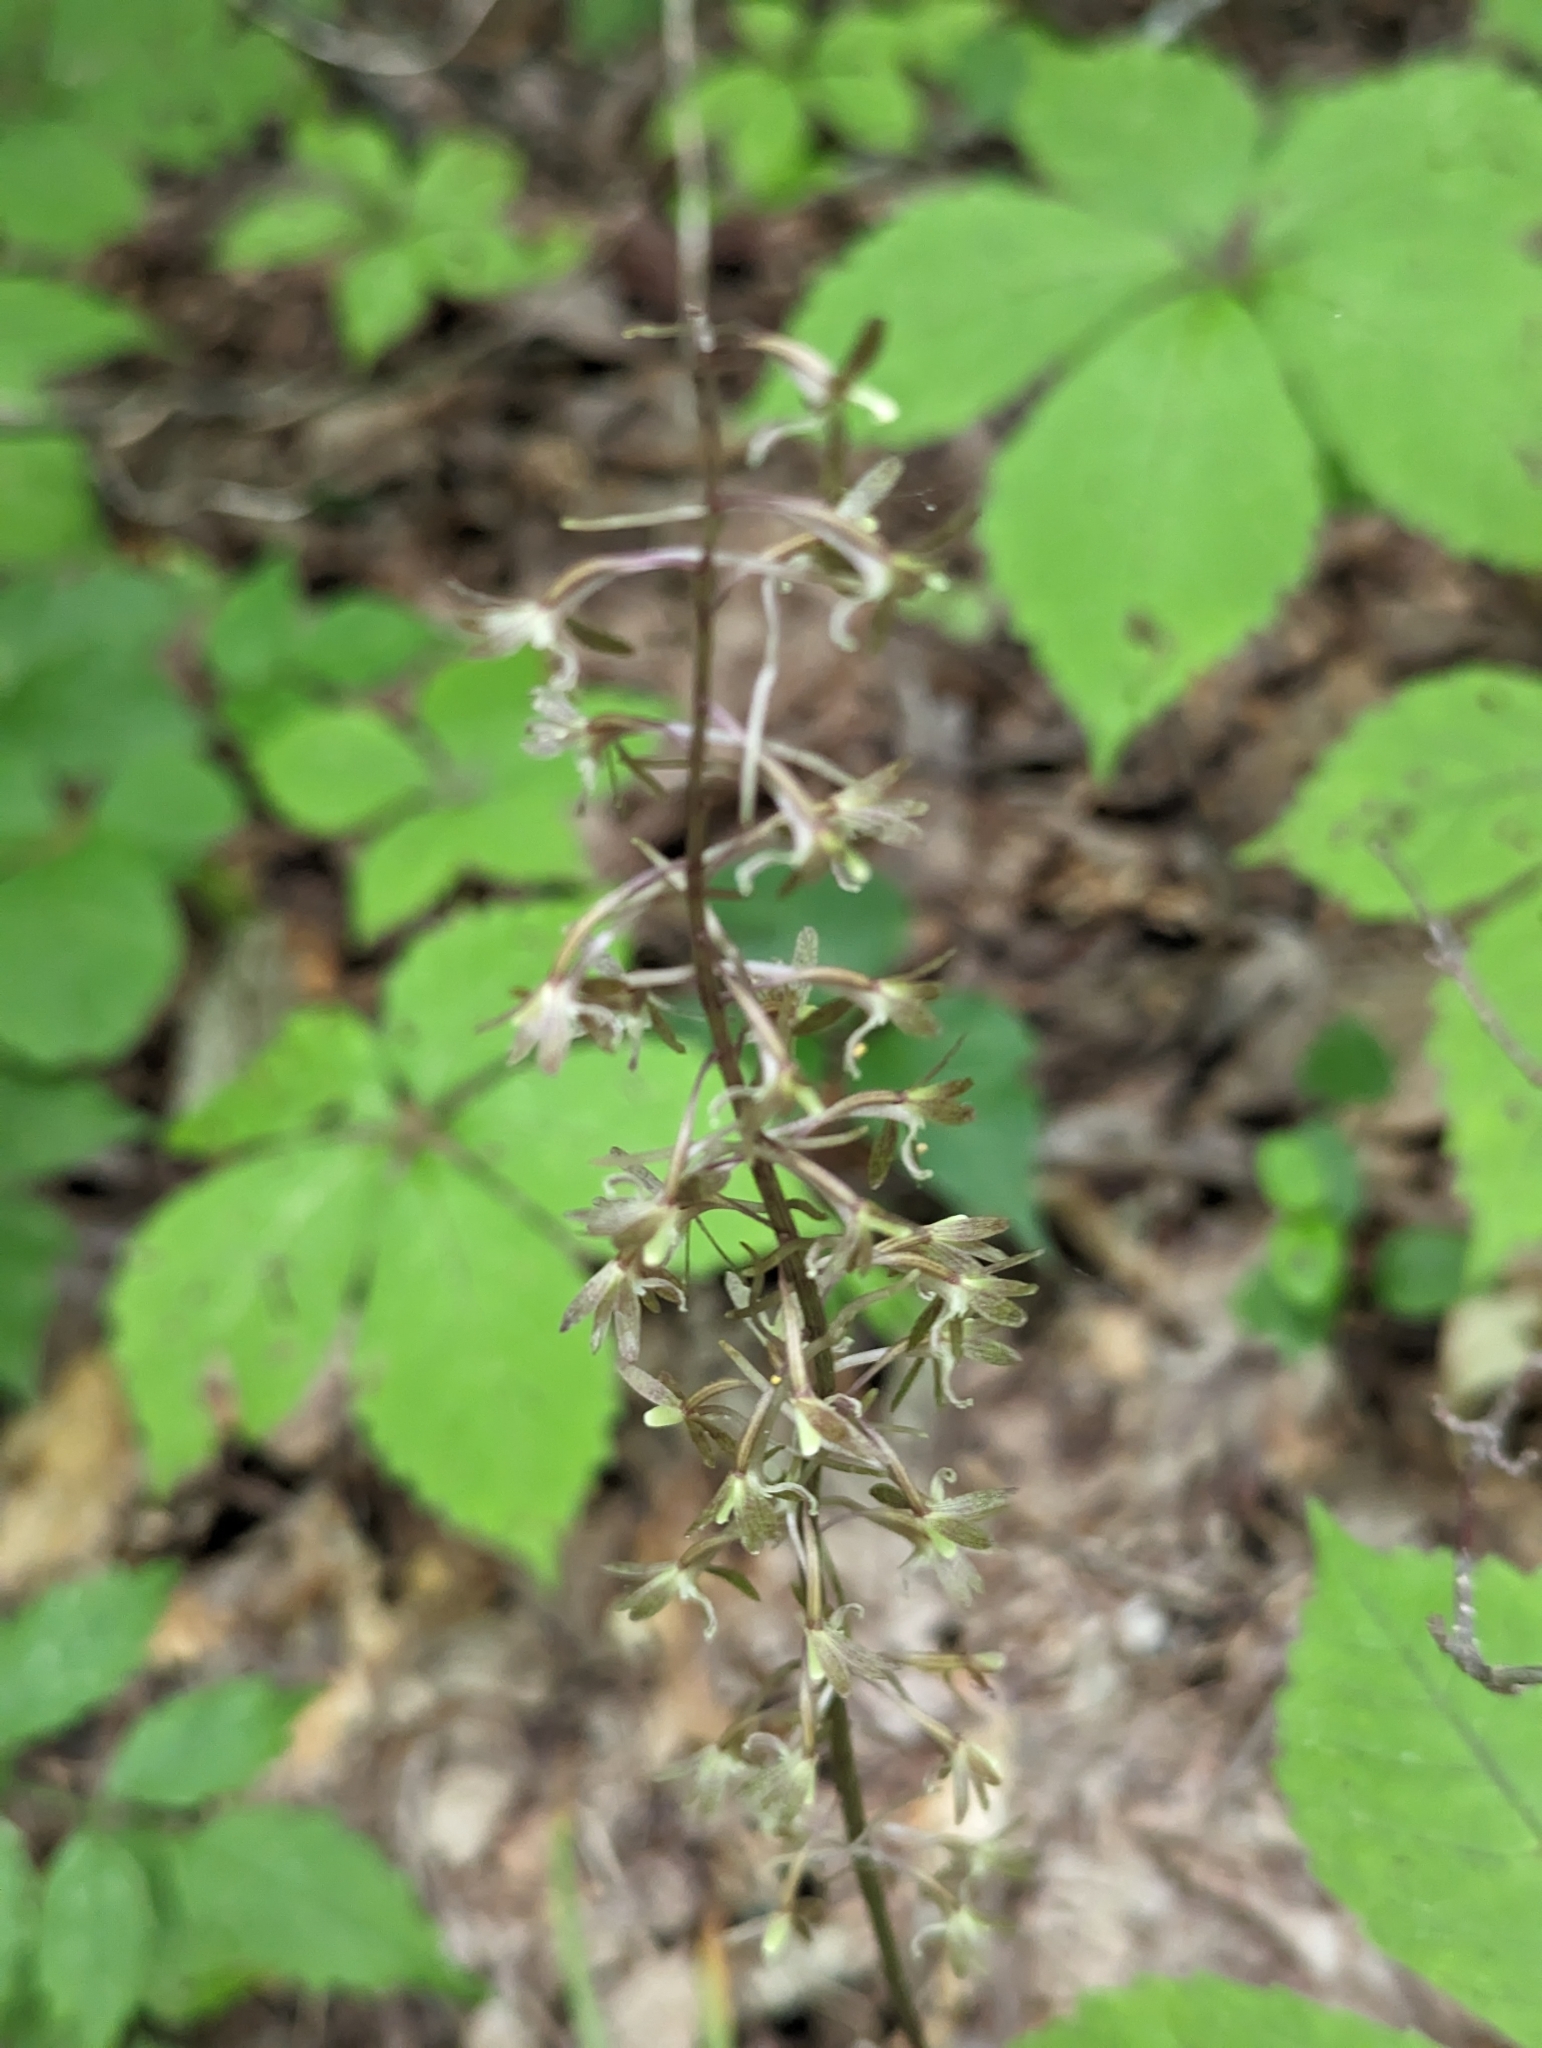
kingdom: Plantae
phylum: Tracheophyta
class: Liliopsida
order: Asparagales
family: Orchidaceae
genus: Tipularia
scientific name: Tipularia discolor
